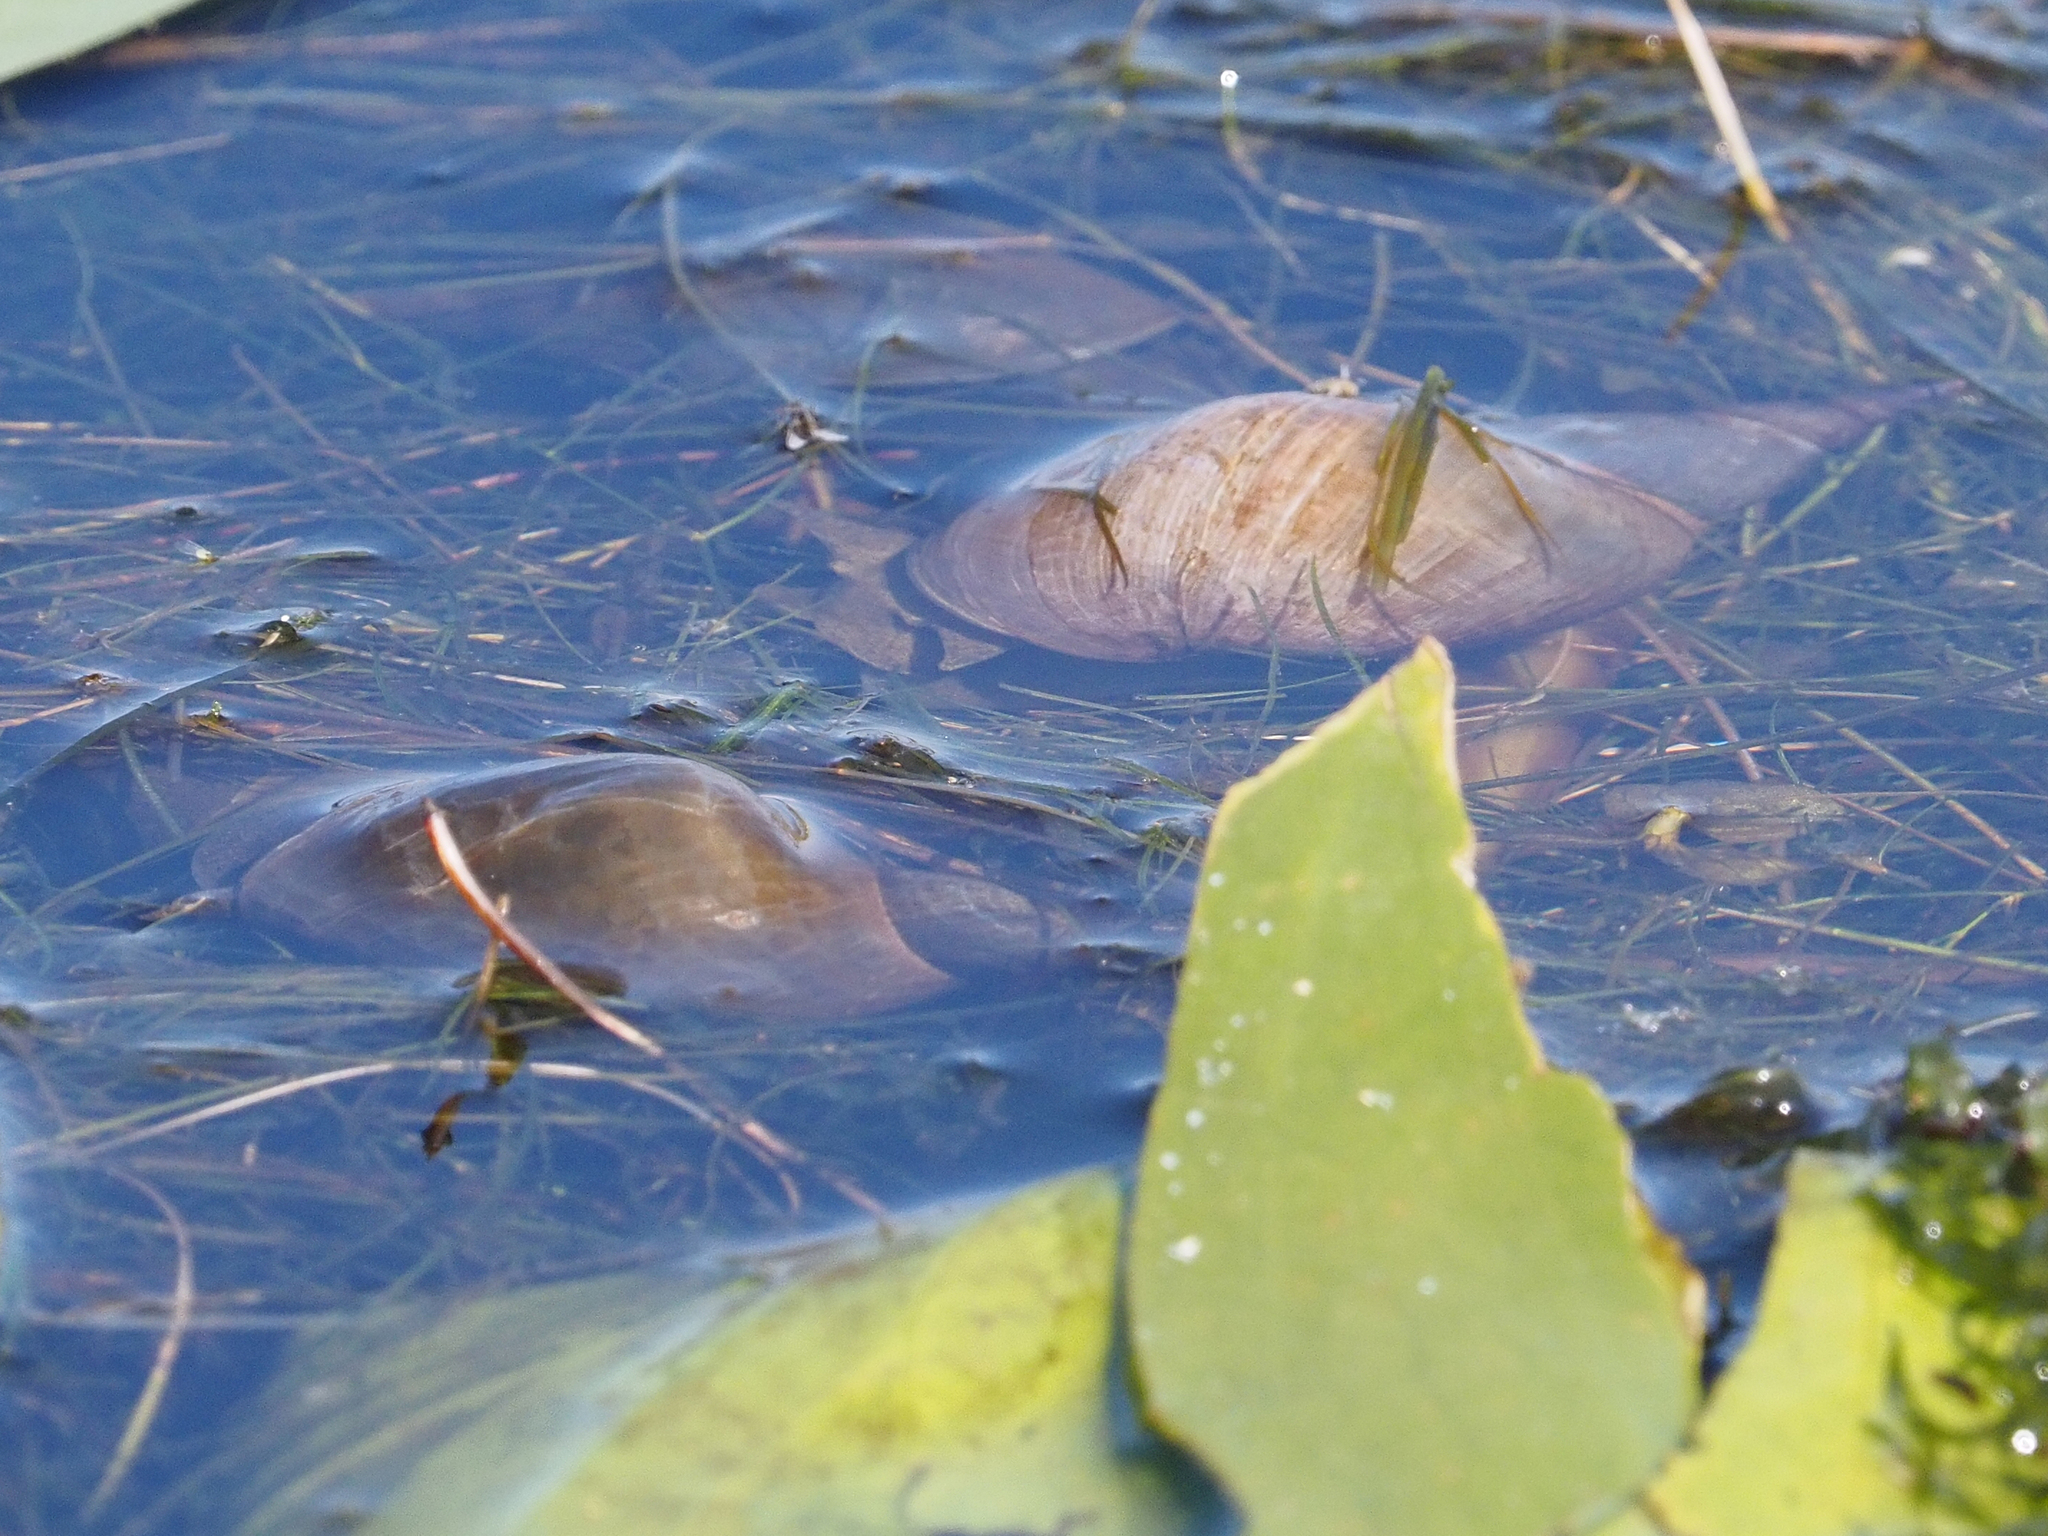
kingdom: Animalia
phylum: Mollusca
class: Gastropoda
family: Lymnaeidae
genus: Lymnaea
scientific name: Lymnaea stagnalis
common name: Great pond snail
